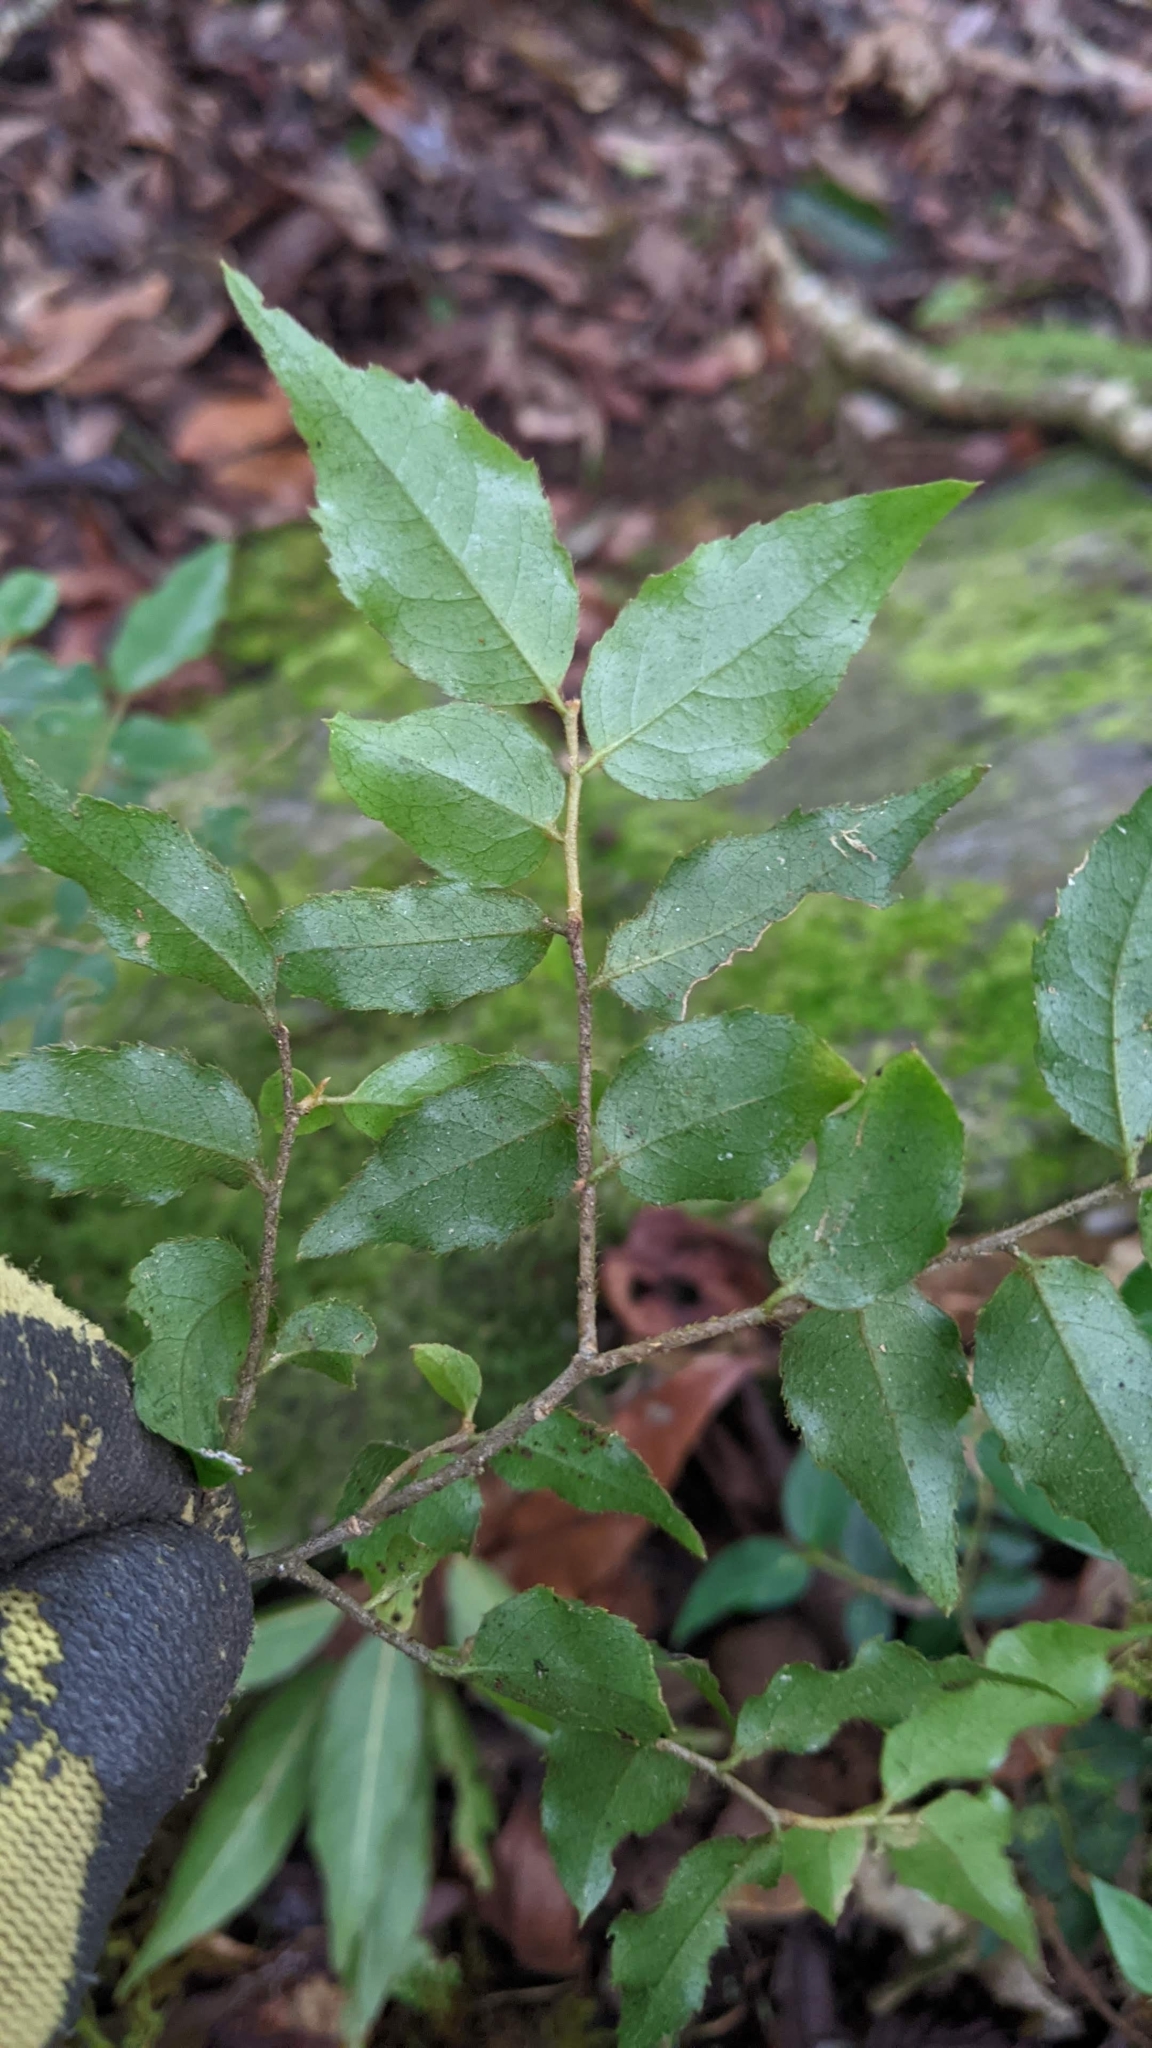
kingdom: Plantae
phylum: Tracheophyta
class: Magnoliopsida
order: Ericales
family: Symplocaceae
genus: Symplocos
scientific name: Symplocos lancifolia
